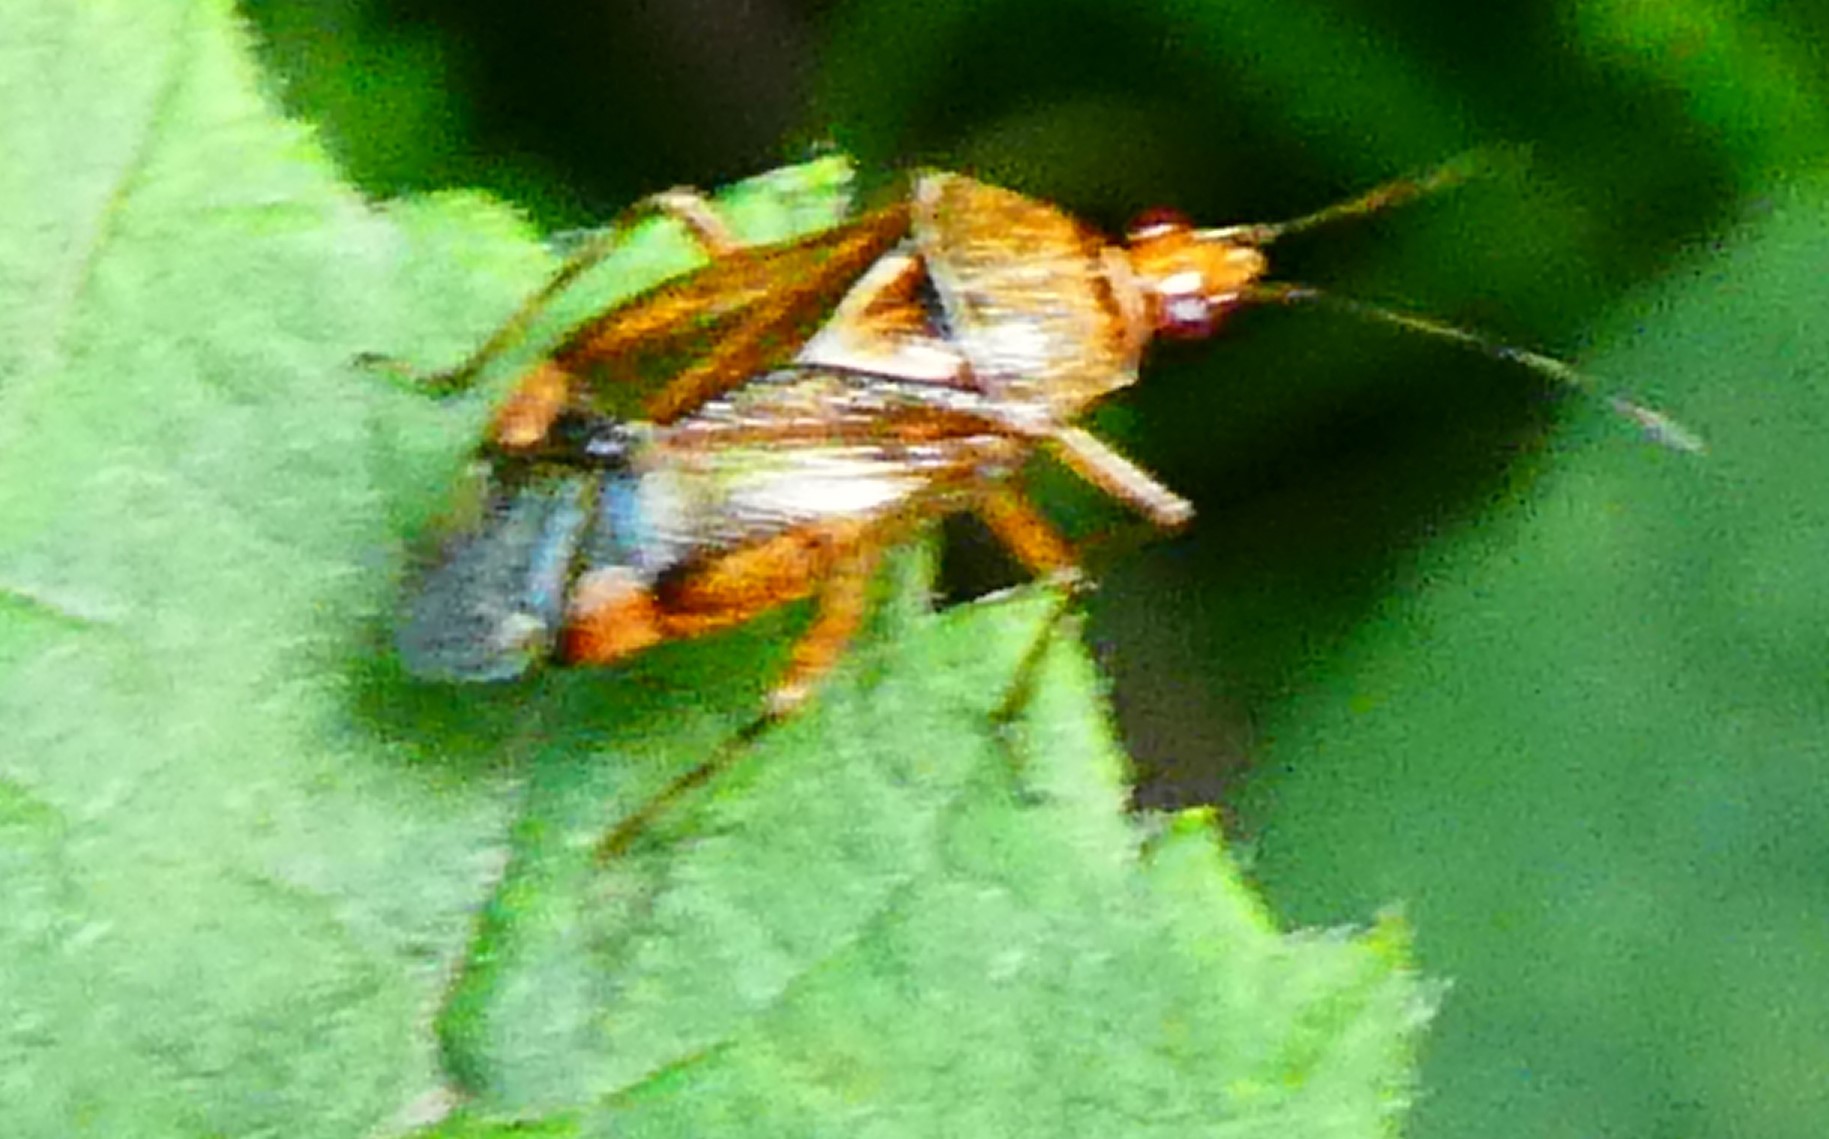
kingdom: Animalia
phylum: Arthropoda
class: Insecta
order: Hemiptera
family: Miridae
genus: Deraeocoris
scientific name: Deraeocoris flavilinea
